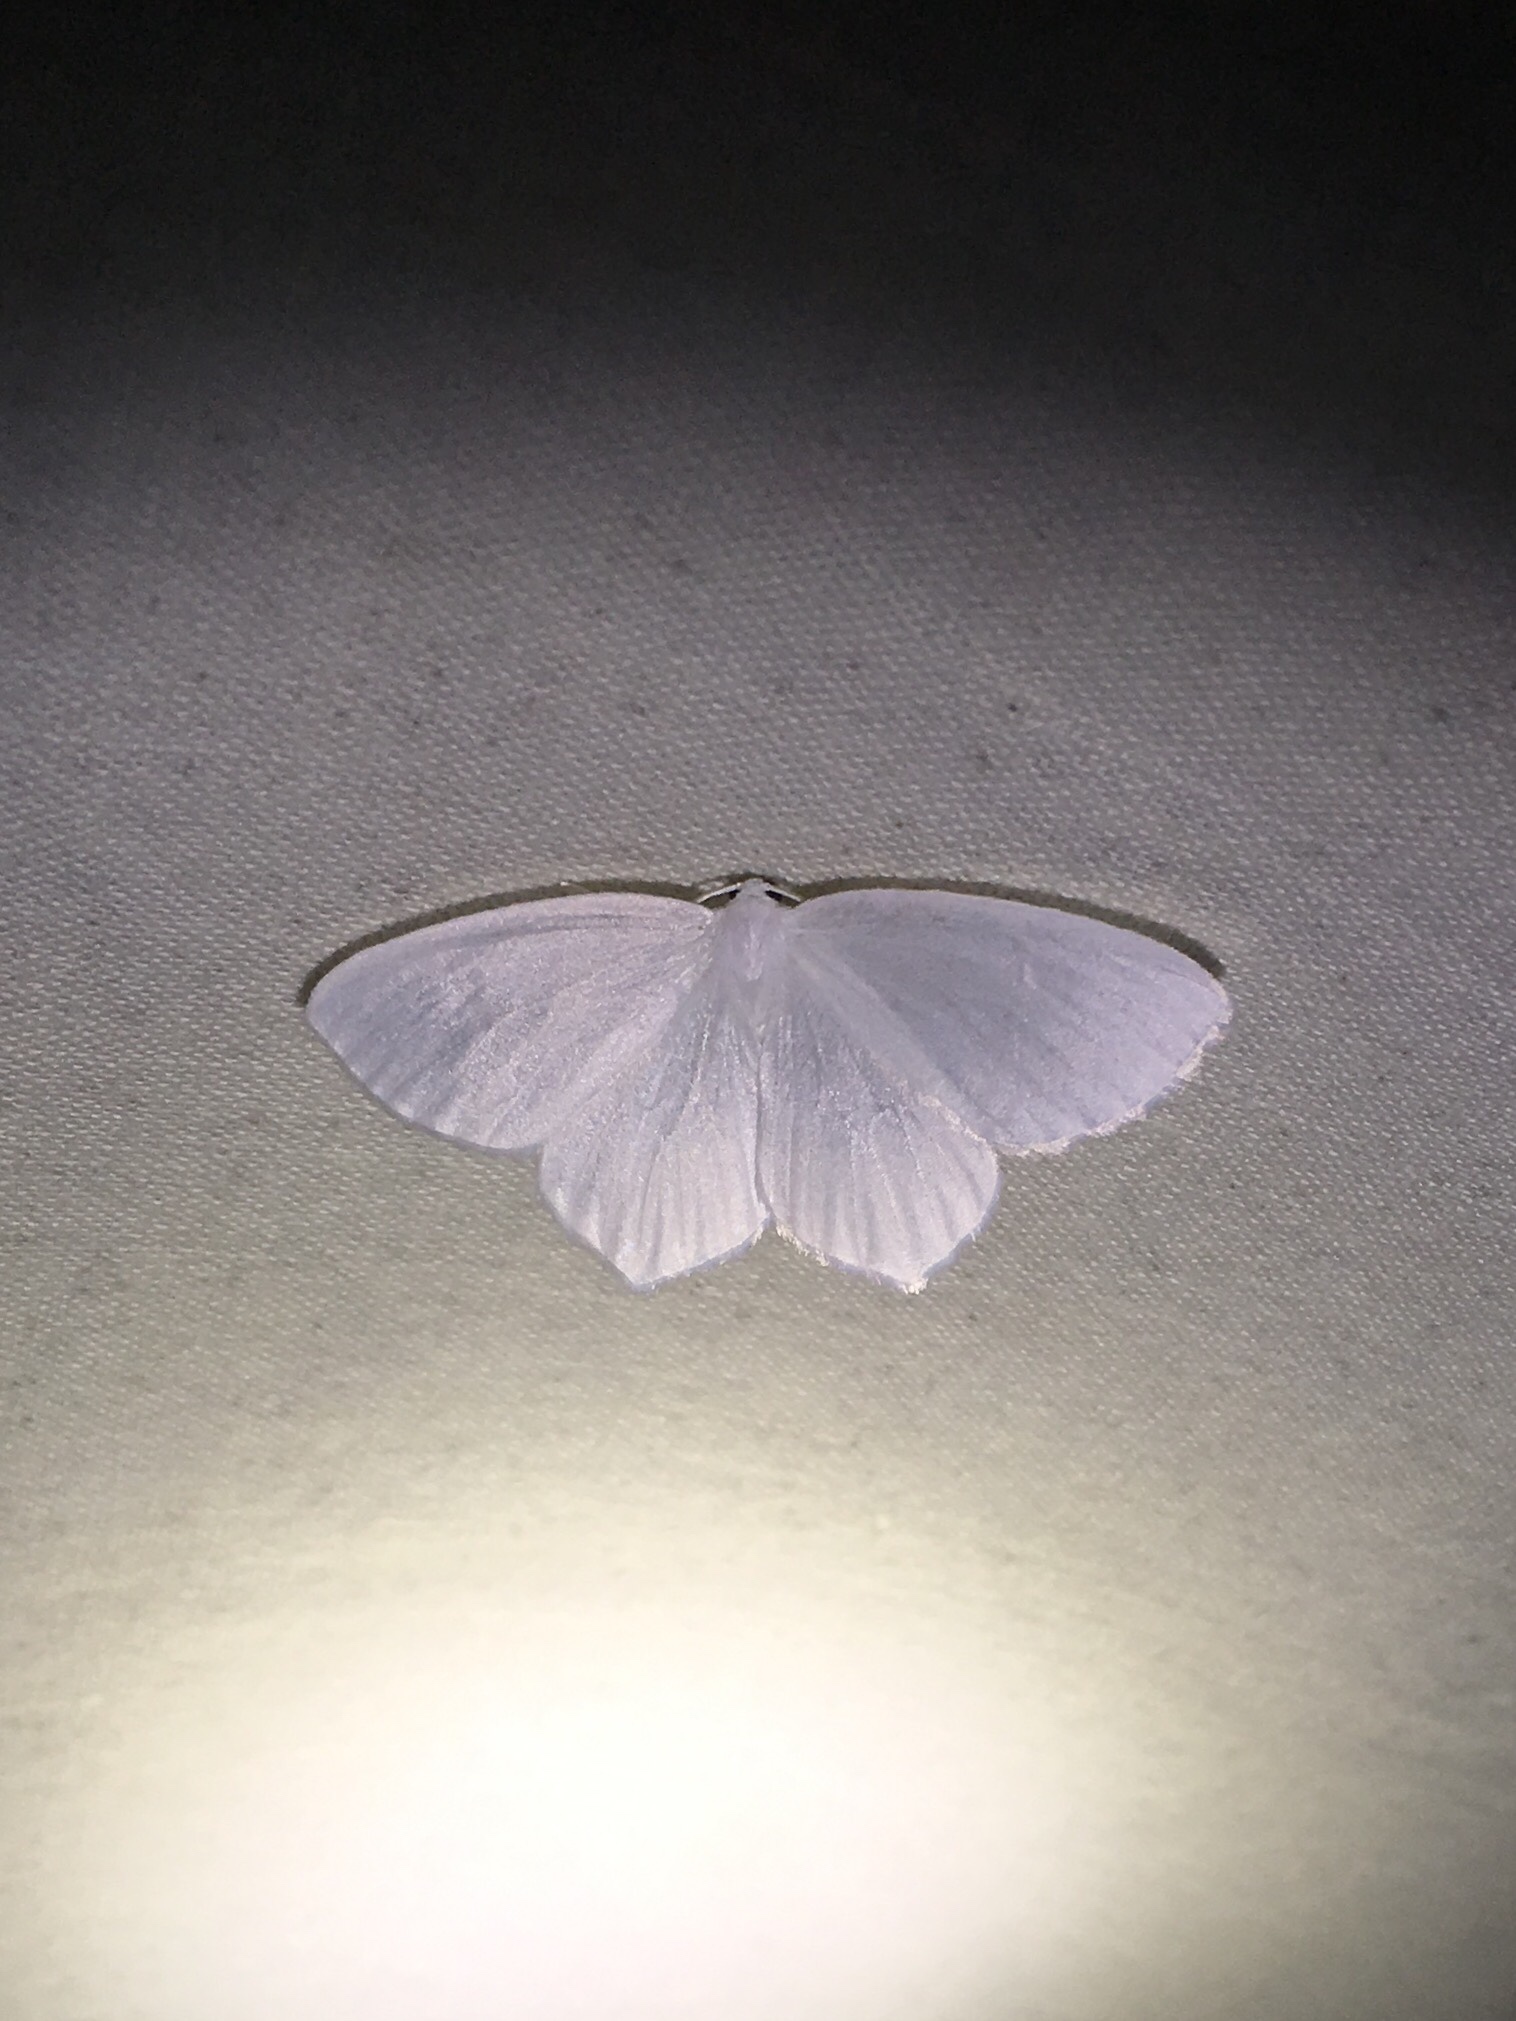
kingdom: Animalia
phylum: Arthropoda
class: Insecta
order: Lepidoptera
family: Geometridae
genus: Eugonobapta
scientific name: Eugonobapta nivosaria
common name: Snowy geometer
